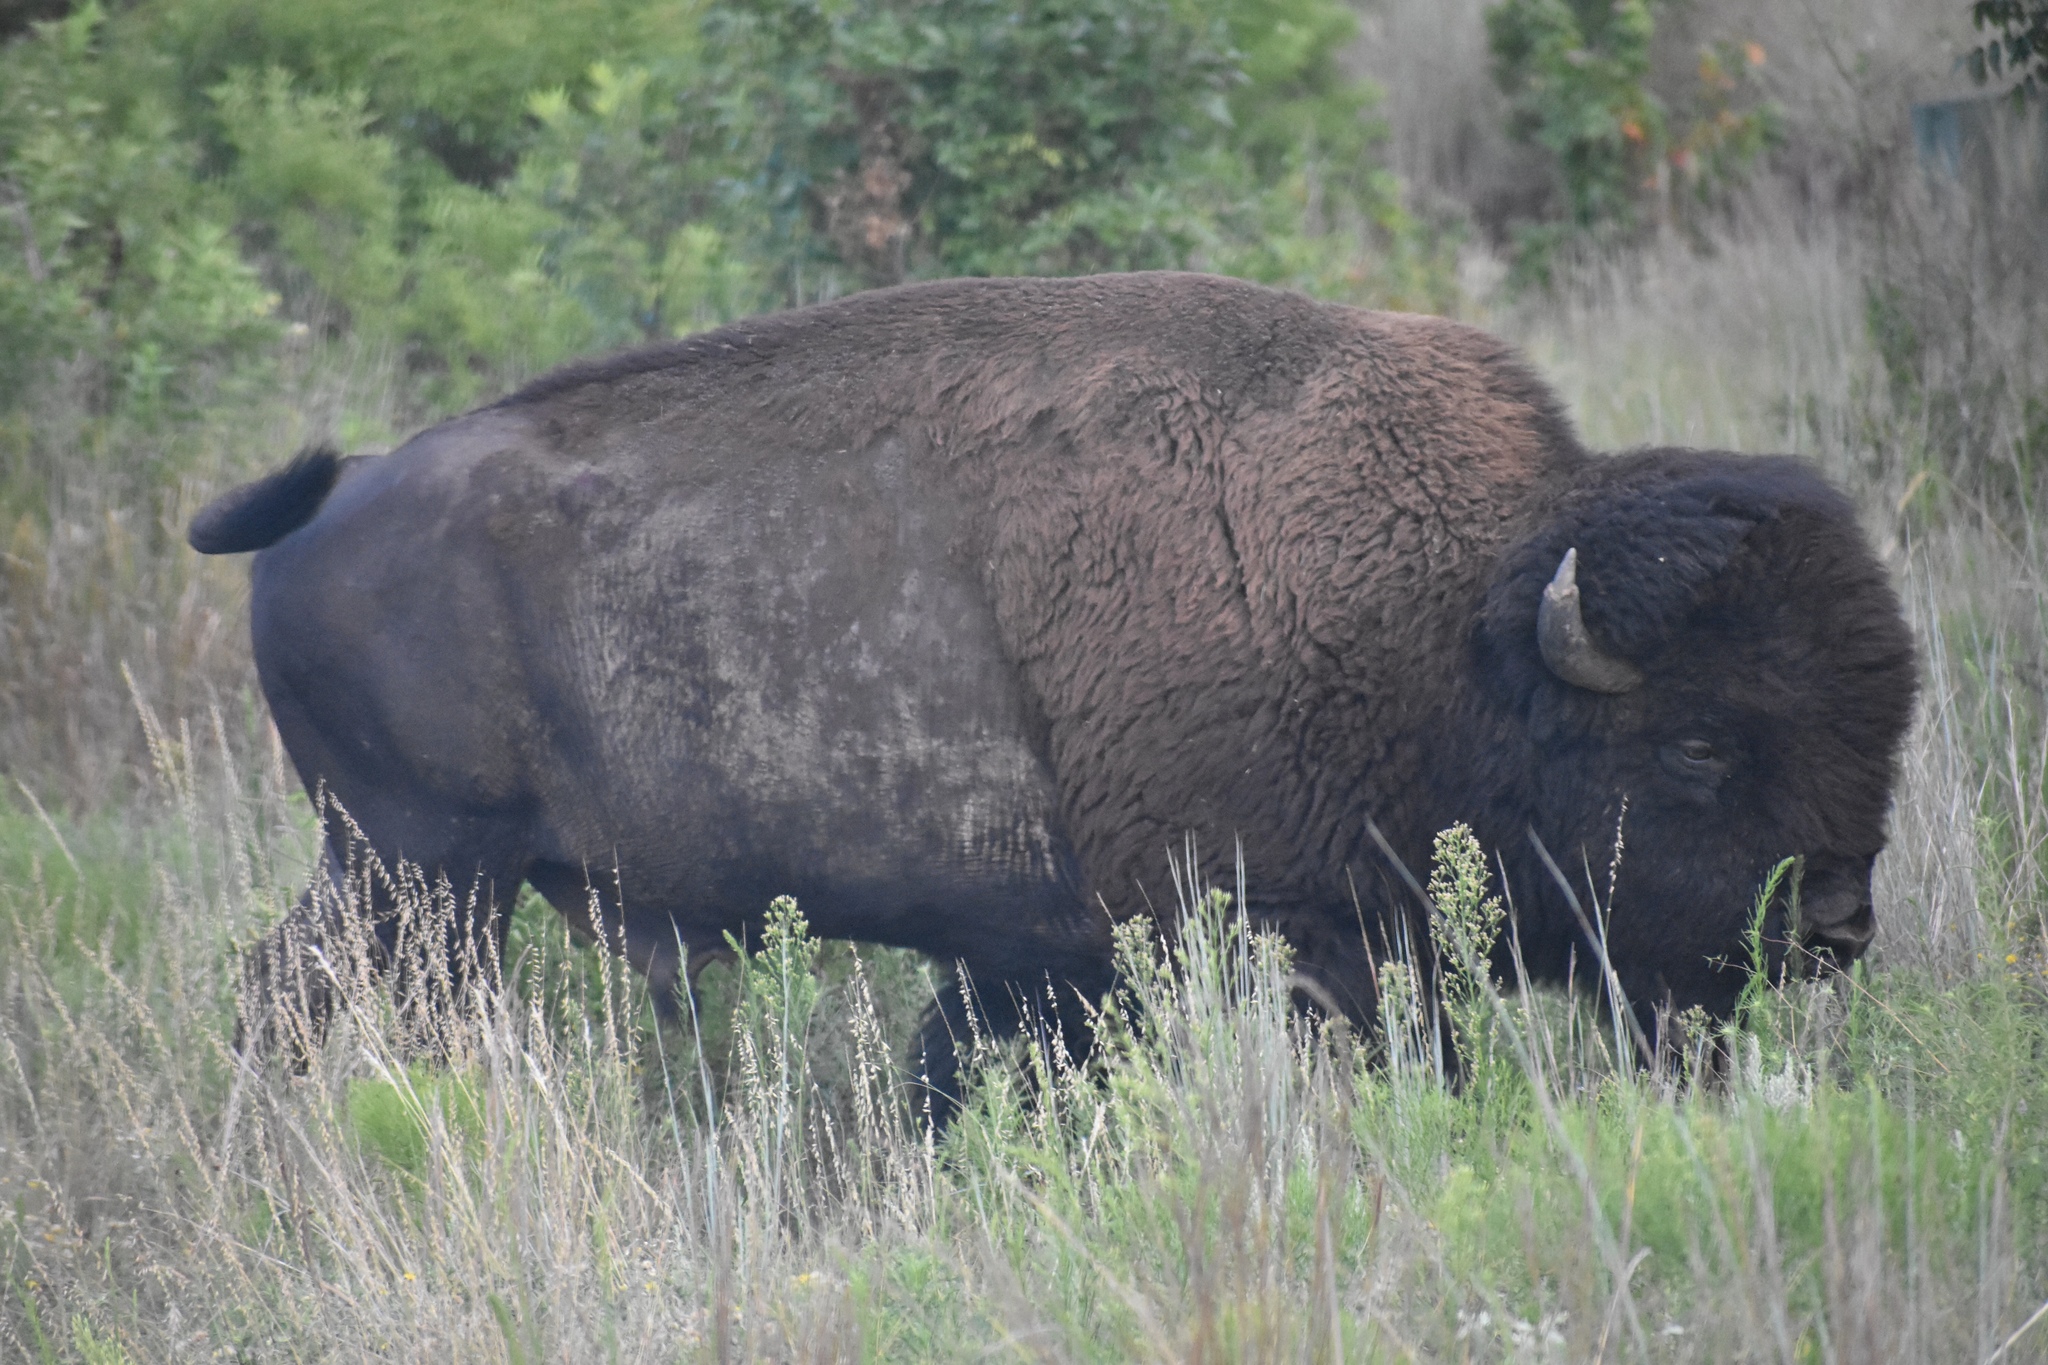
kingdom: Animalia
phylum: Chordata
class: Mammalia
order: Artiodactyla
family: Bovidae
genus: Bison
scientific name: Bison bison
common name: American bison
